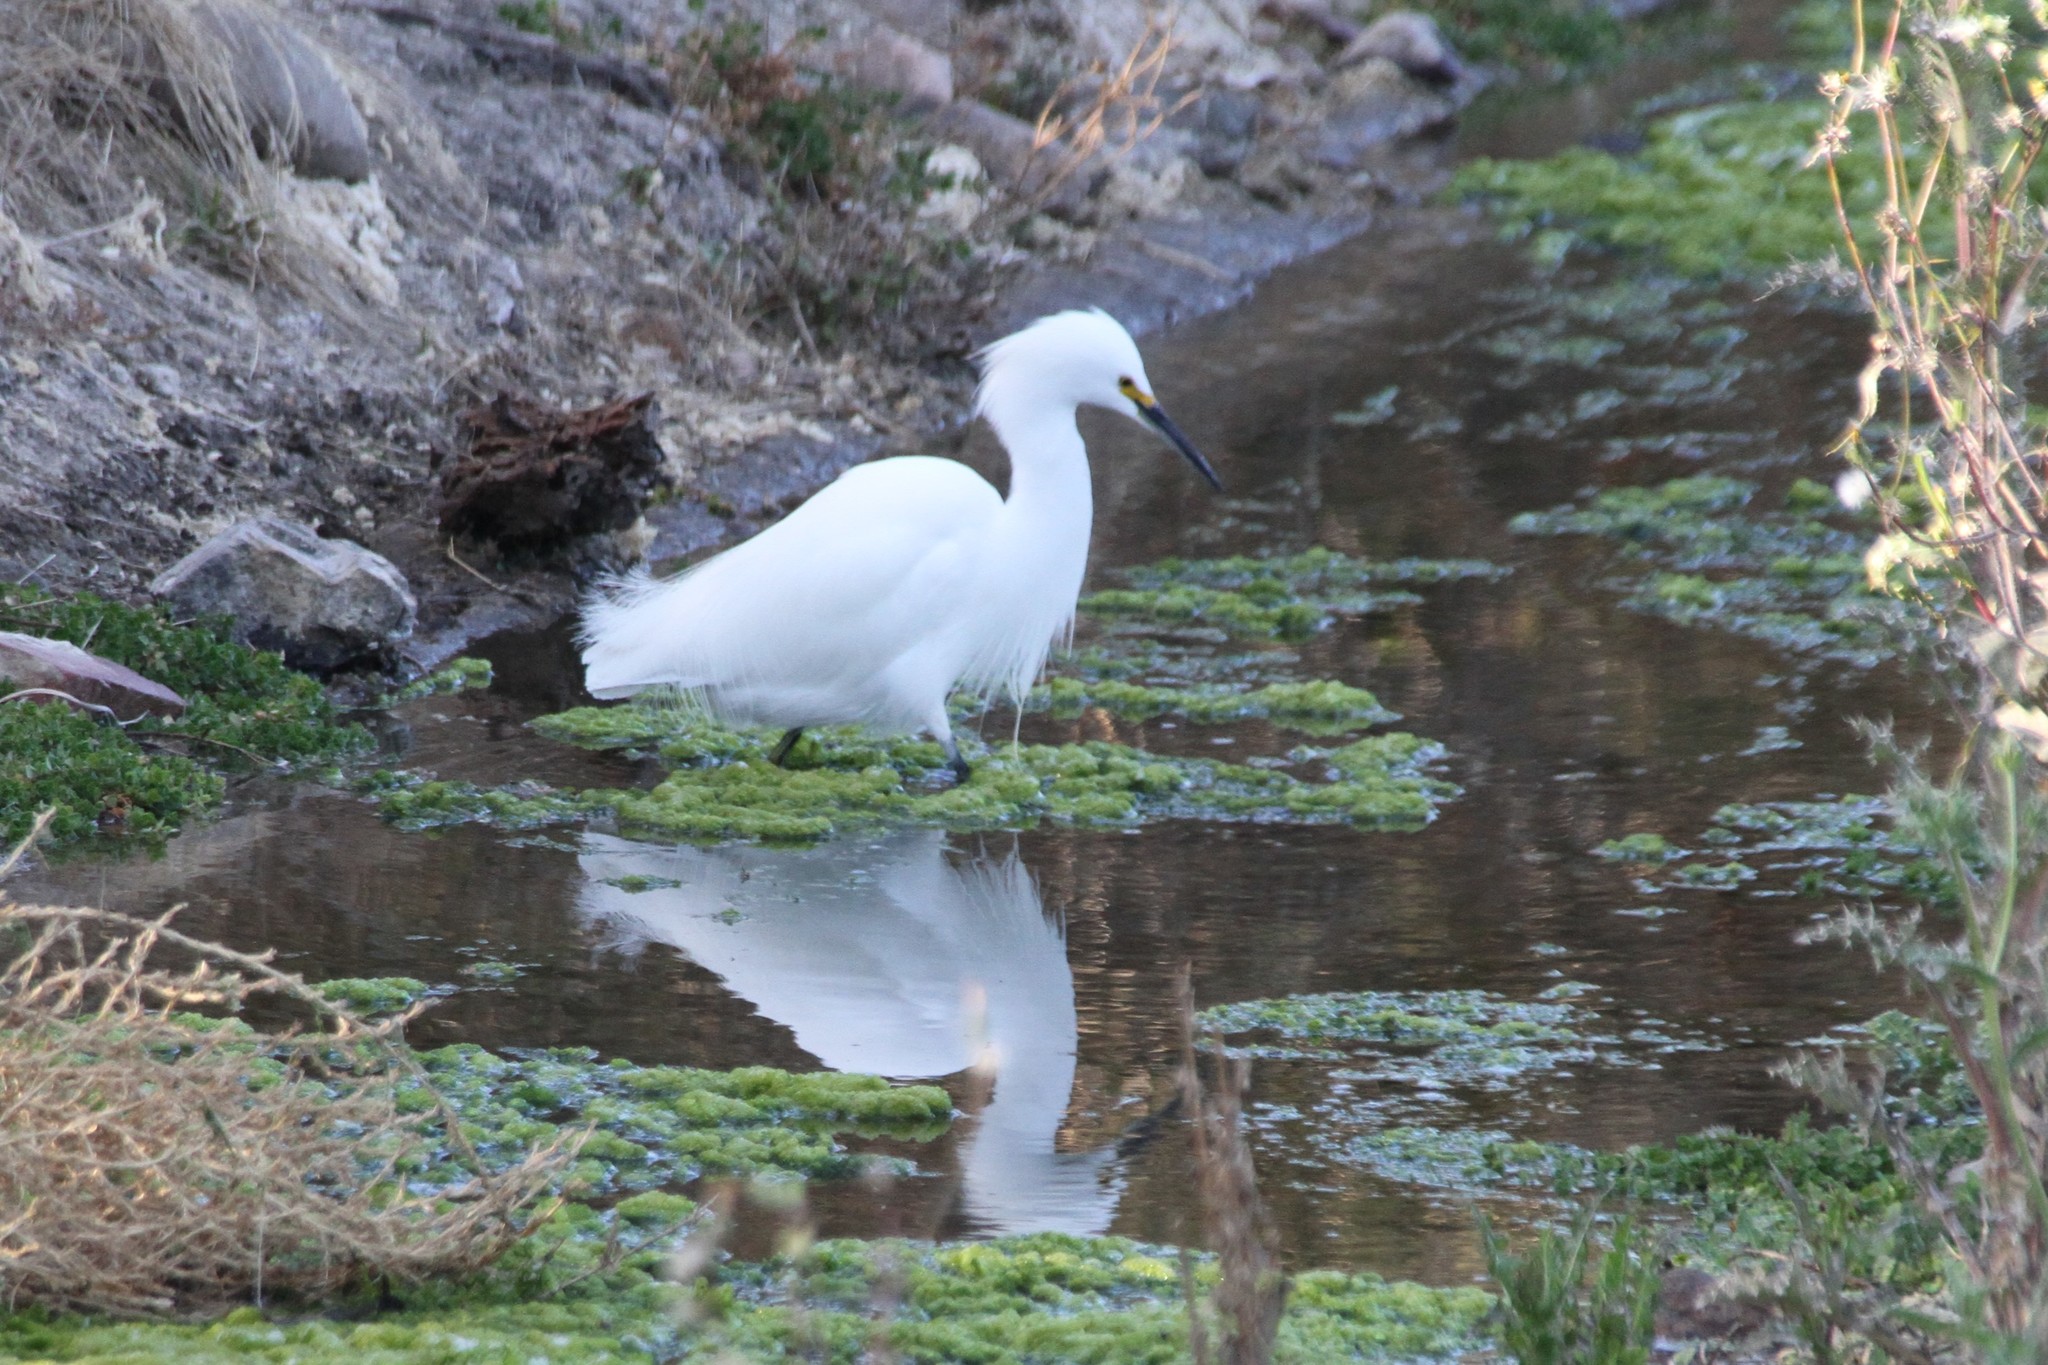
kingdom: Animalia
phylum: Chordata
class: Aves
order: Pelecaniformes
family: Ardeidae
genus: Egretta
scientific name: Egretta thula
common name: Snowy egret
